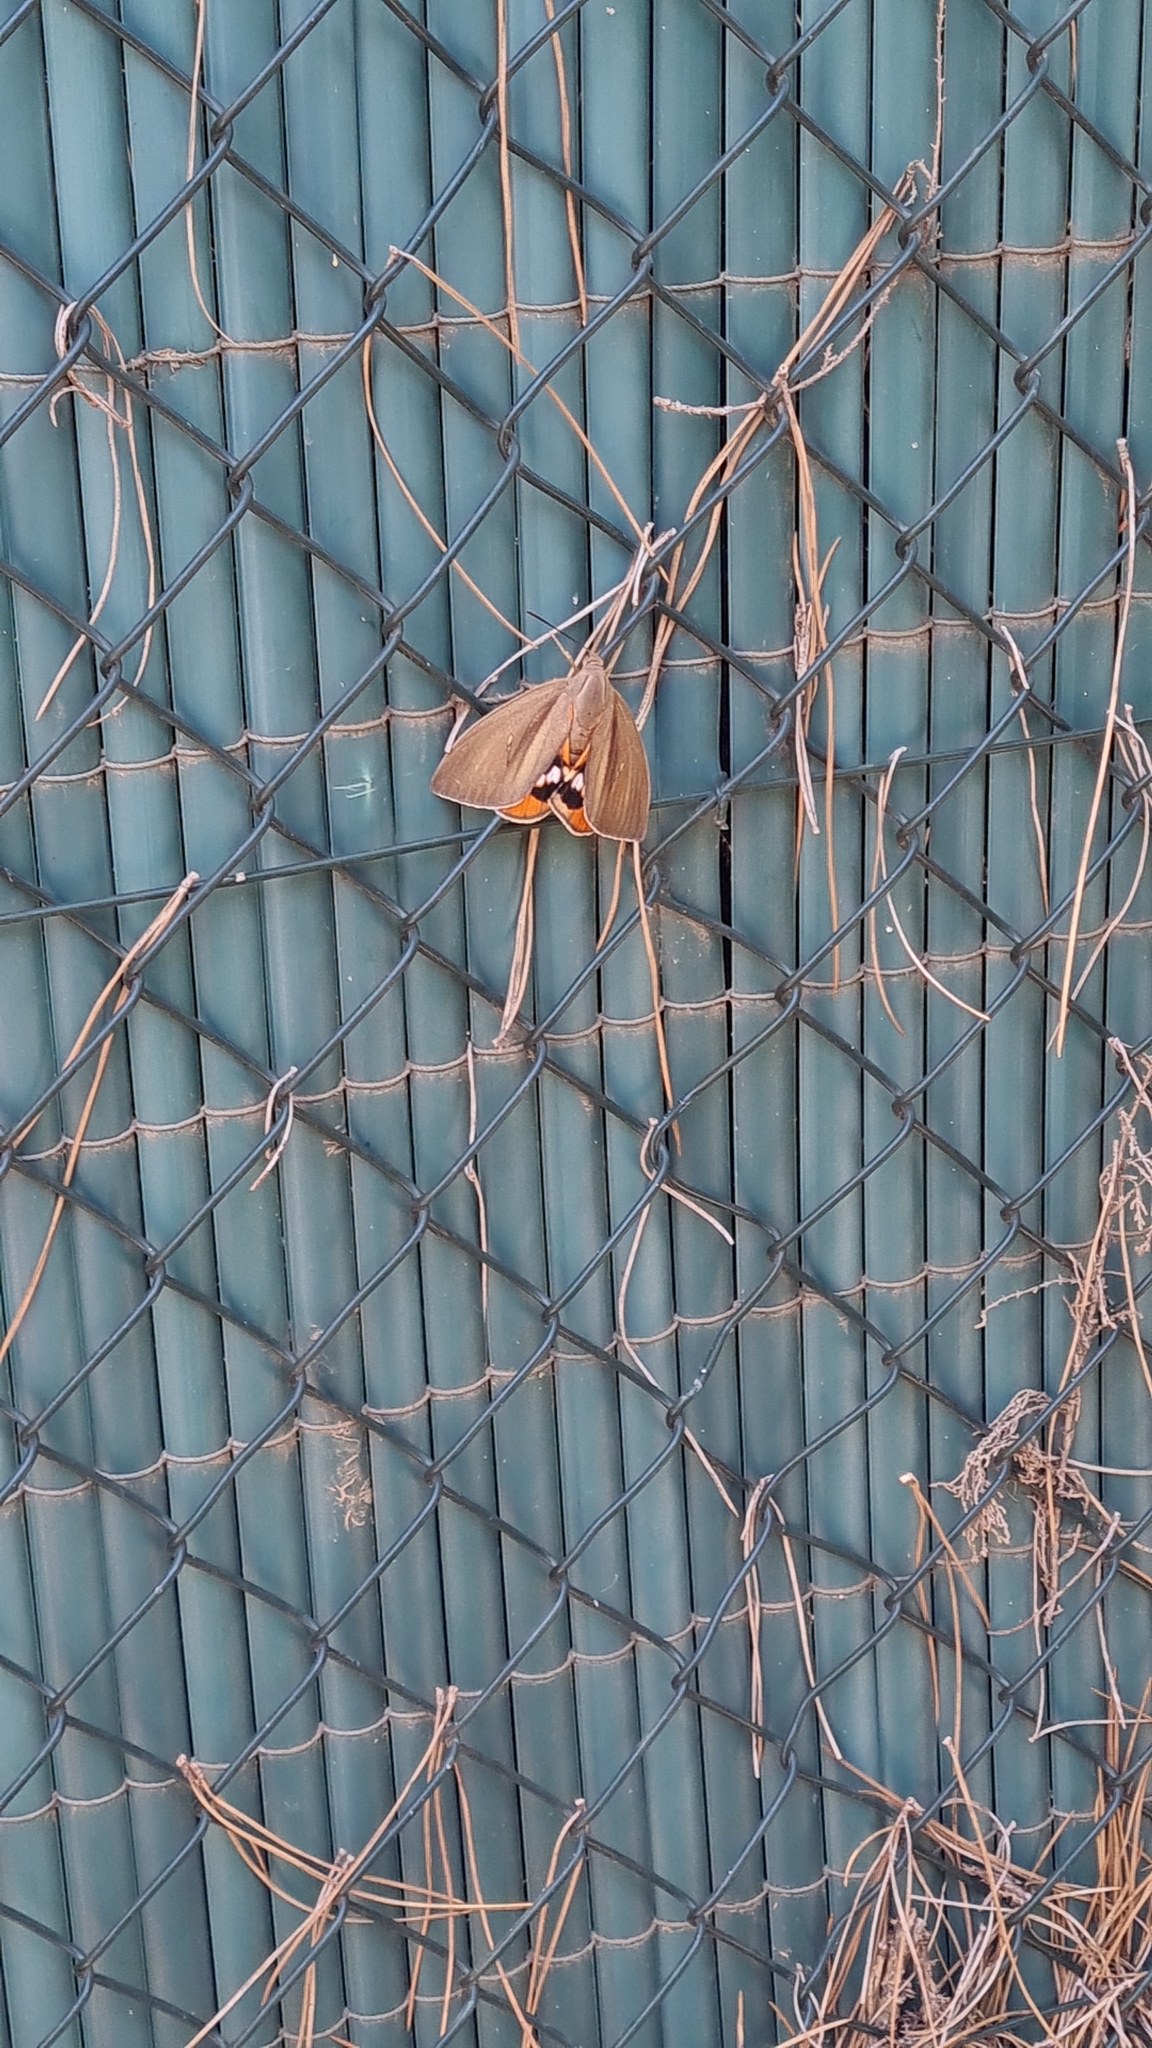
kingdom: Animalia
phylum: Arthropoda
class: Insecta
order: Lepidoptera
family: Castniidae
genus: Paysandisia
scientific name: Paysandisia archon
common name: Palm moth
